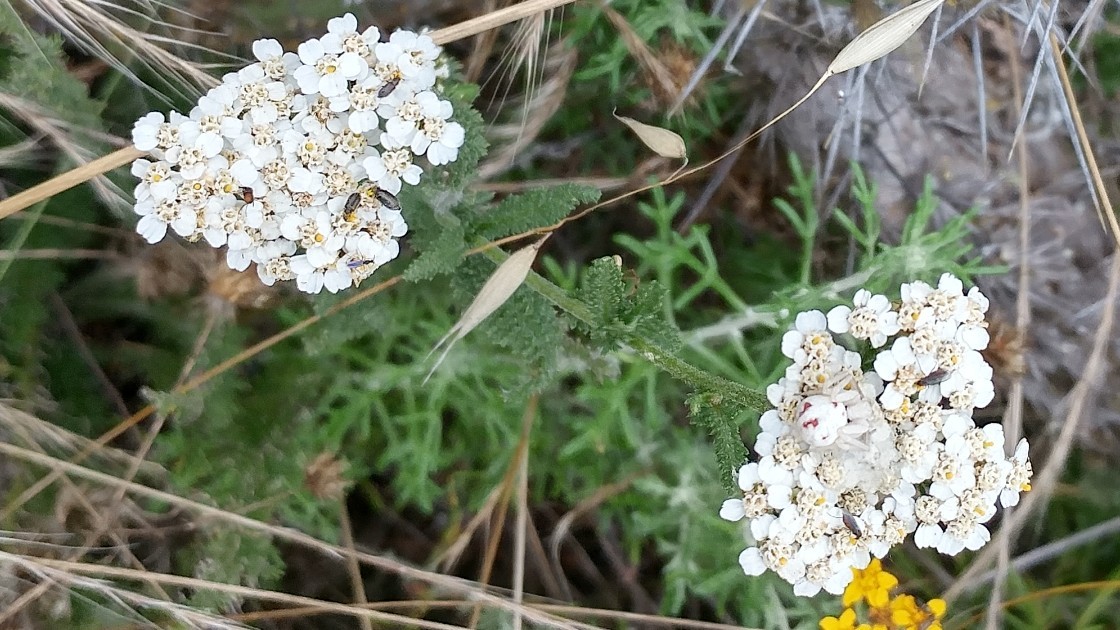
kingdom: Plantae
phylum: Tracheophyta
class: Magnoliopsida
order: Asterales
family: Asteraceae
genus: Achillea
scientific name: Achillea millefolium
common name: Yarrow
